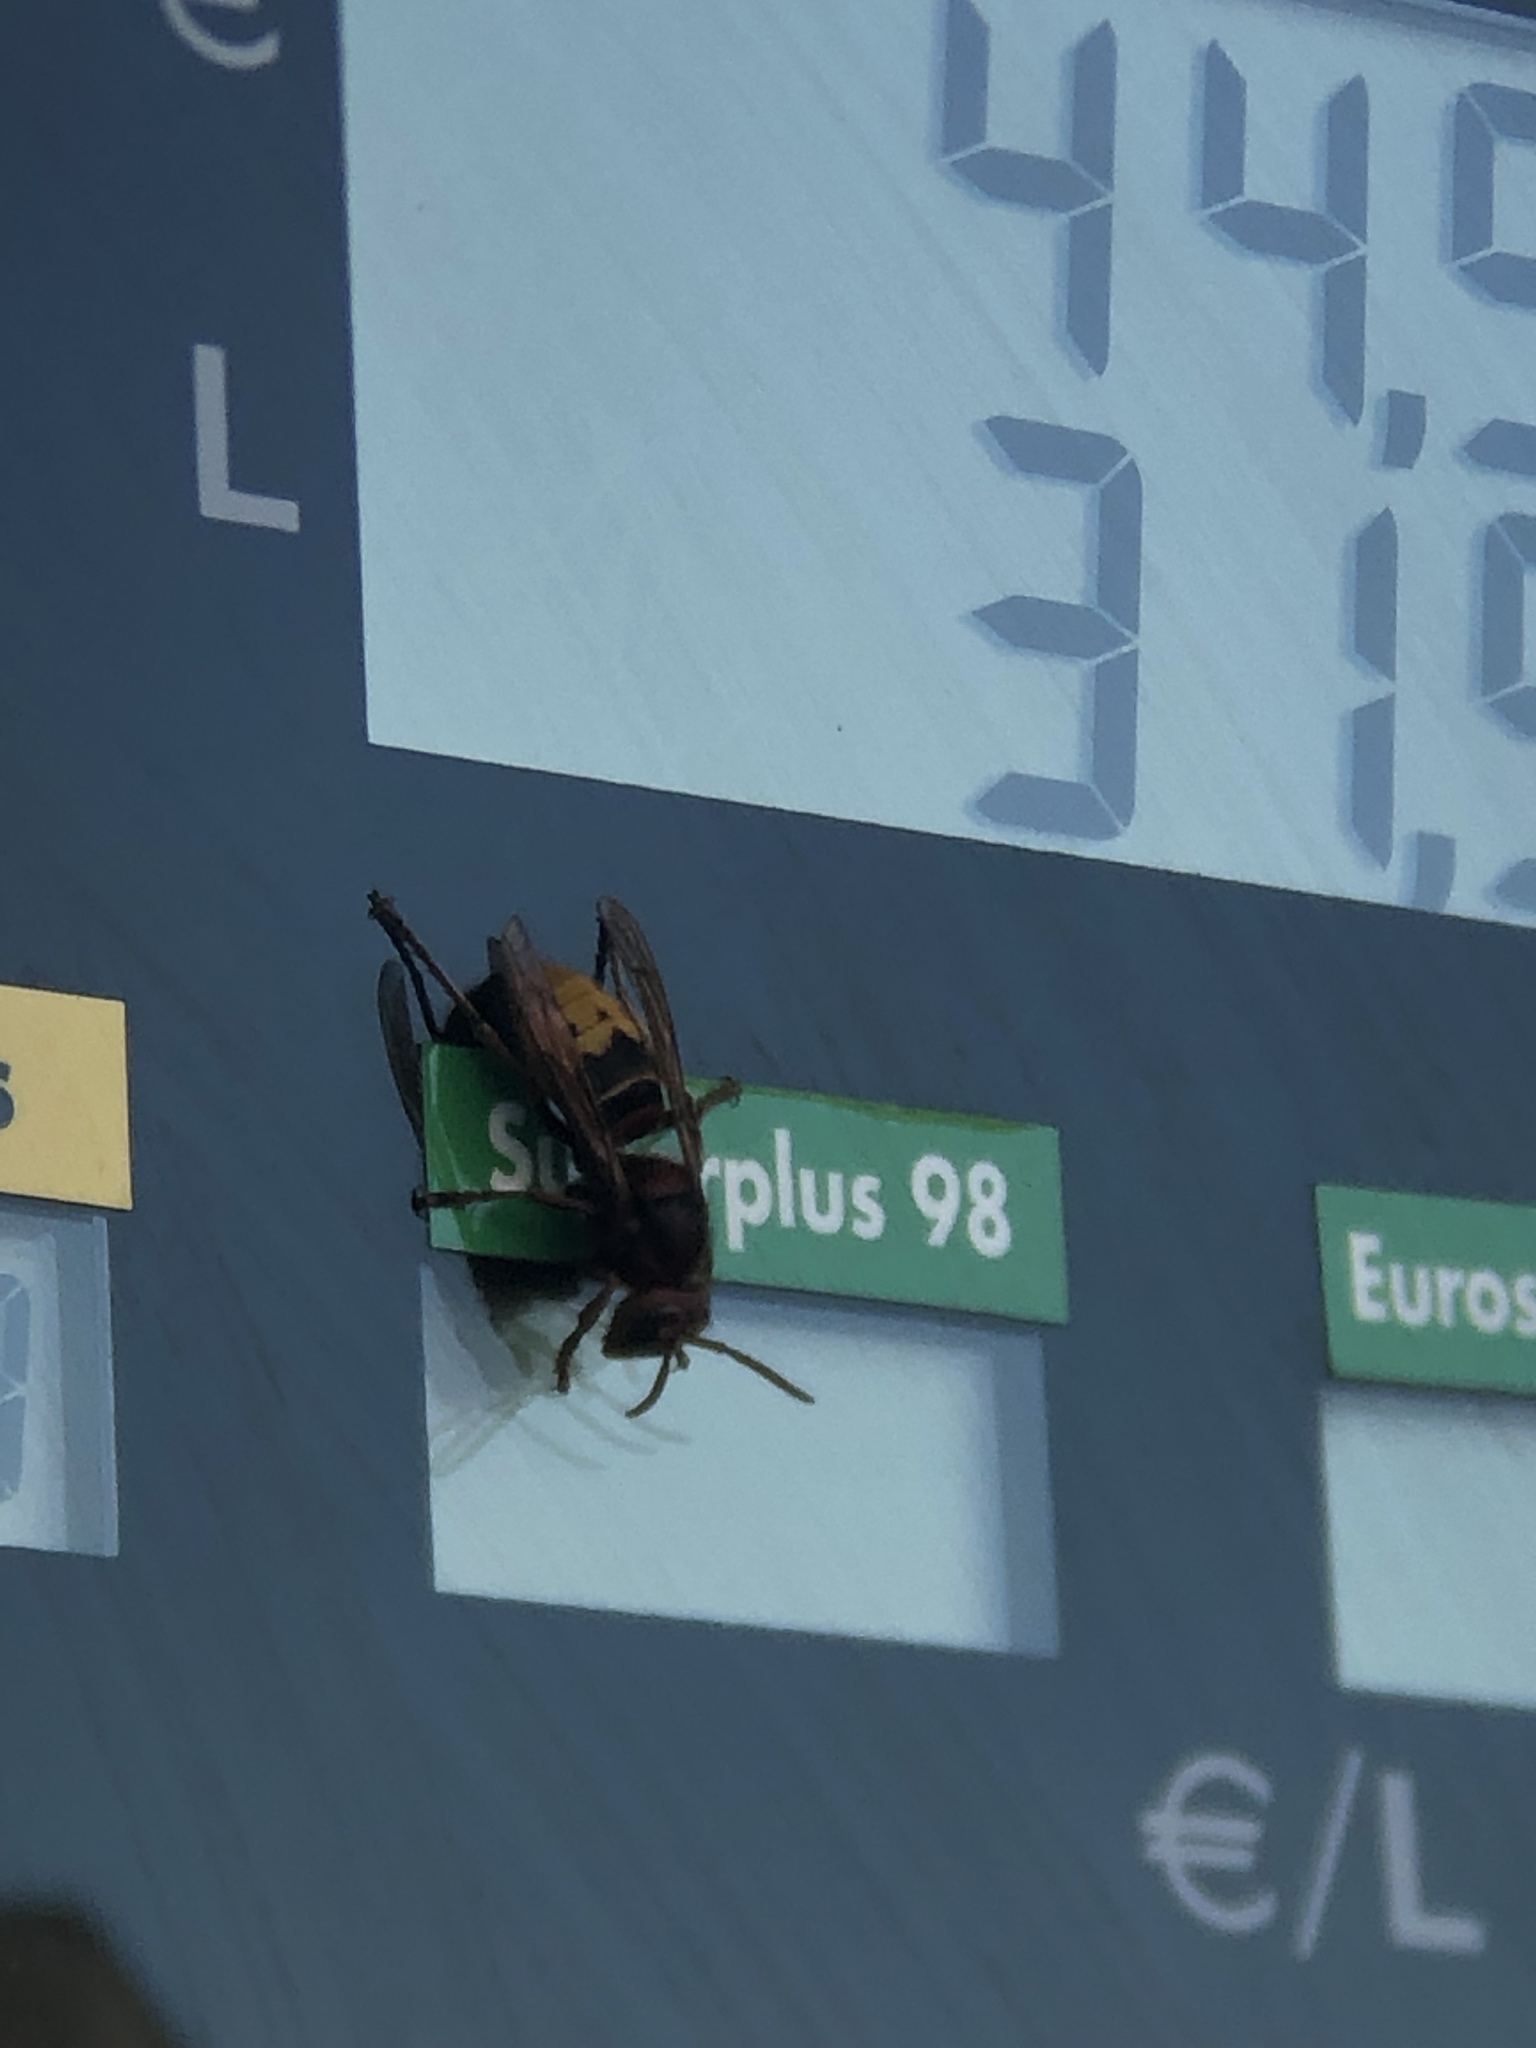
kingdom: Animalia
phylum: Arthropoda
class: Insecta
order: Hymenoptera
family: Vespidae
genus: Vespa
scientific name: Vespa crabro
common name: Hornet
